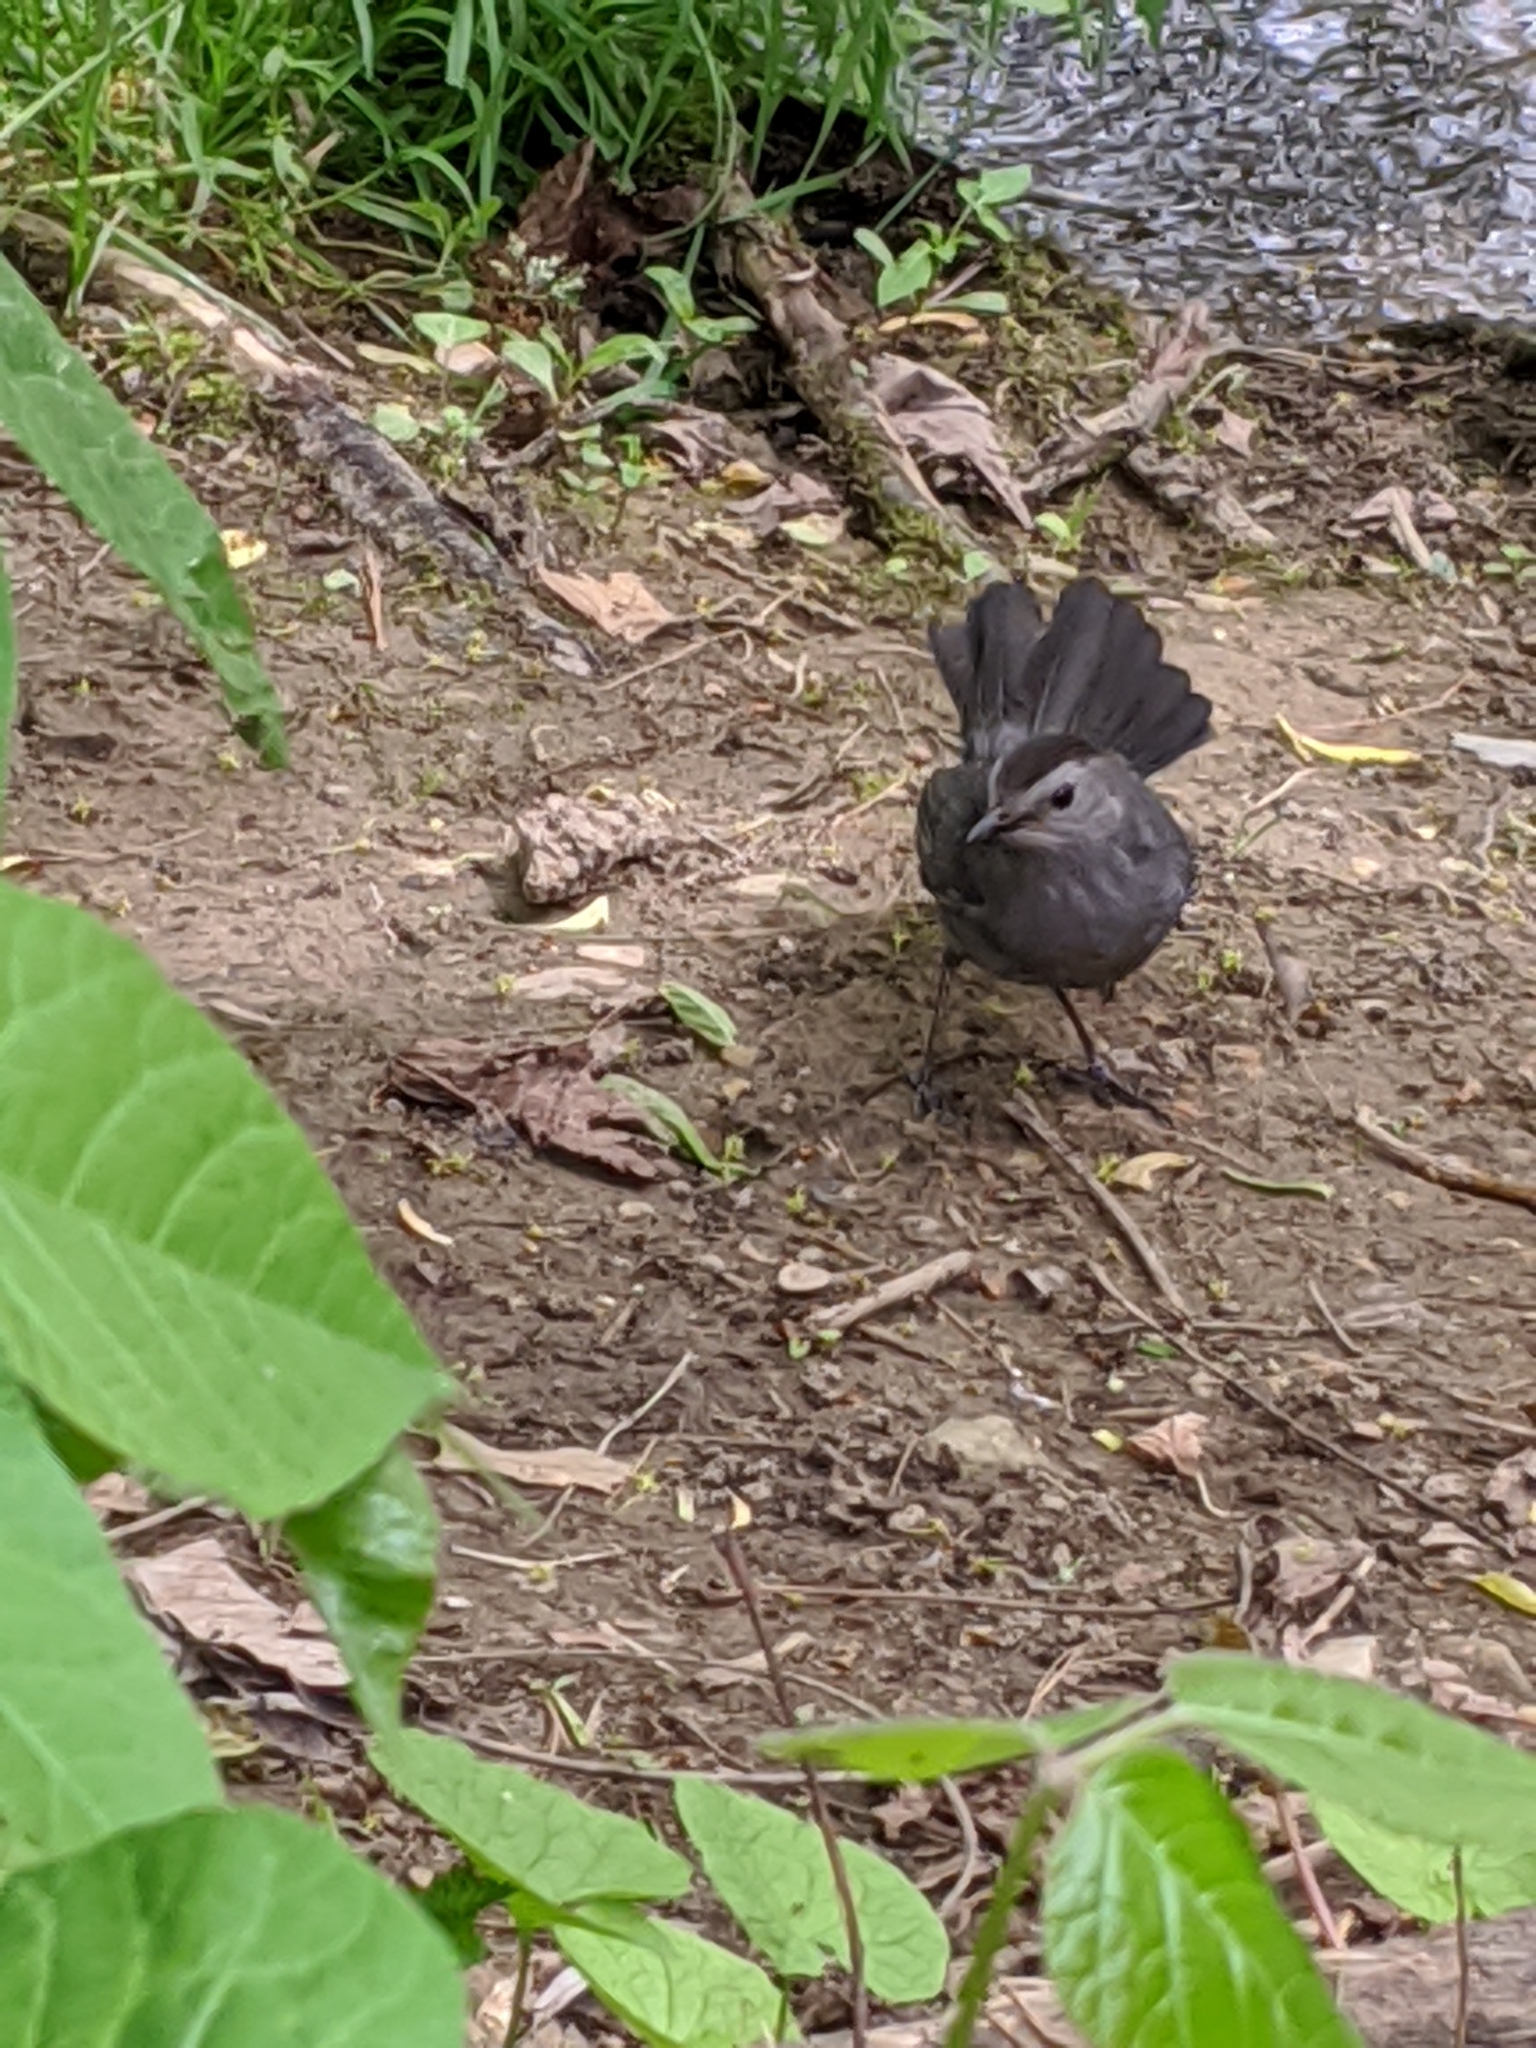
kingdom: Animalia
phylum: Chordata
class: Aves
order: Passeriformes
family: Mimidae
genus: Dumetella
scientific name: Dumetella carolinensis
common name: Gray catbird
